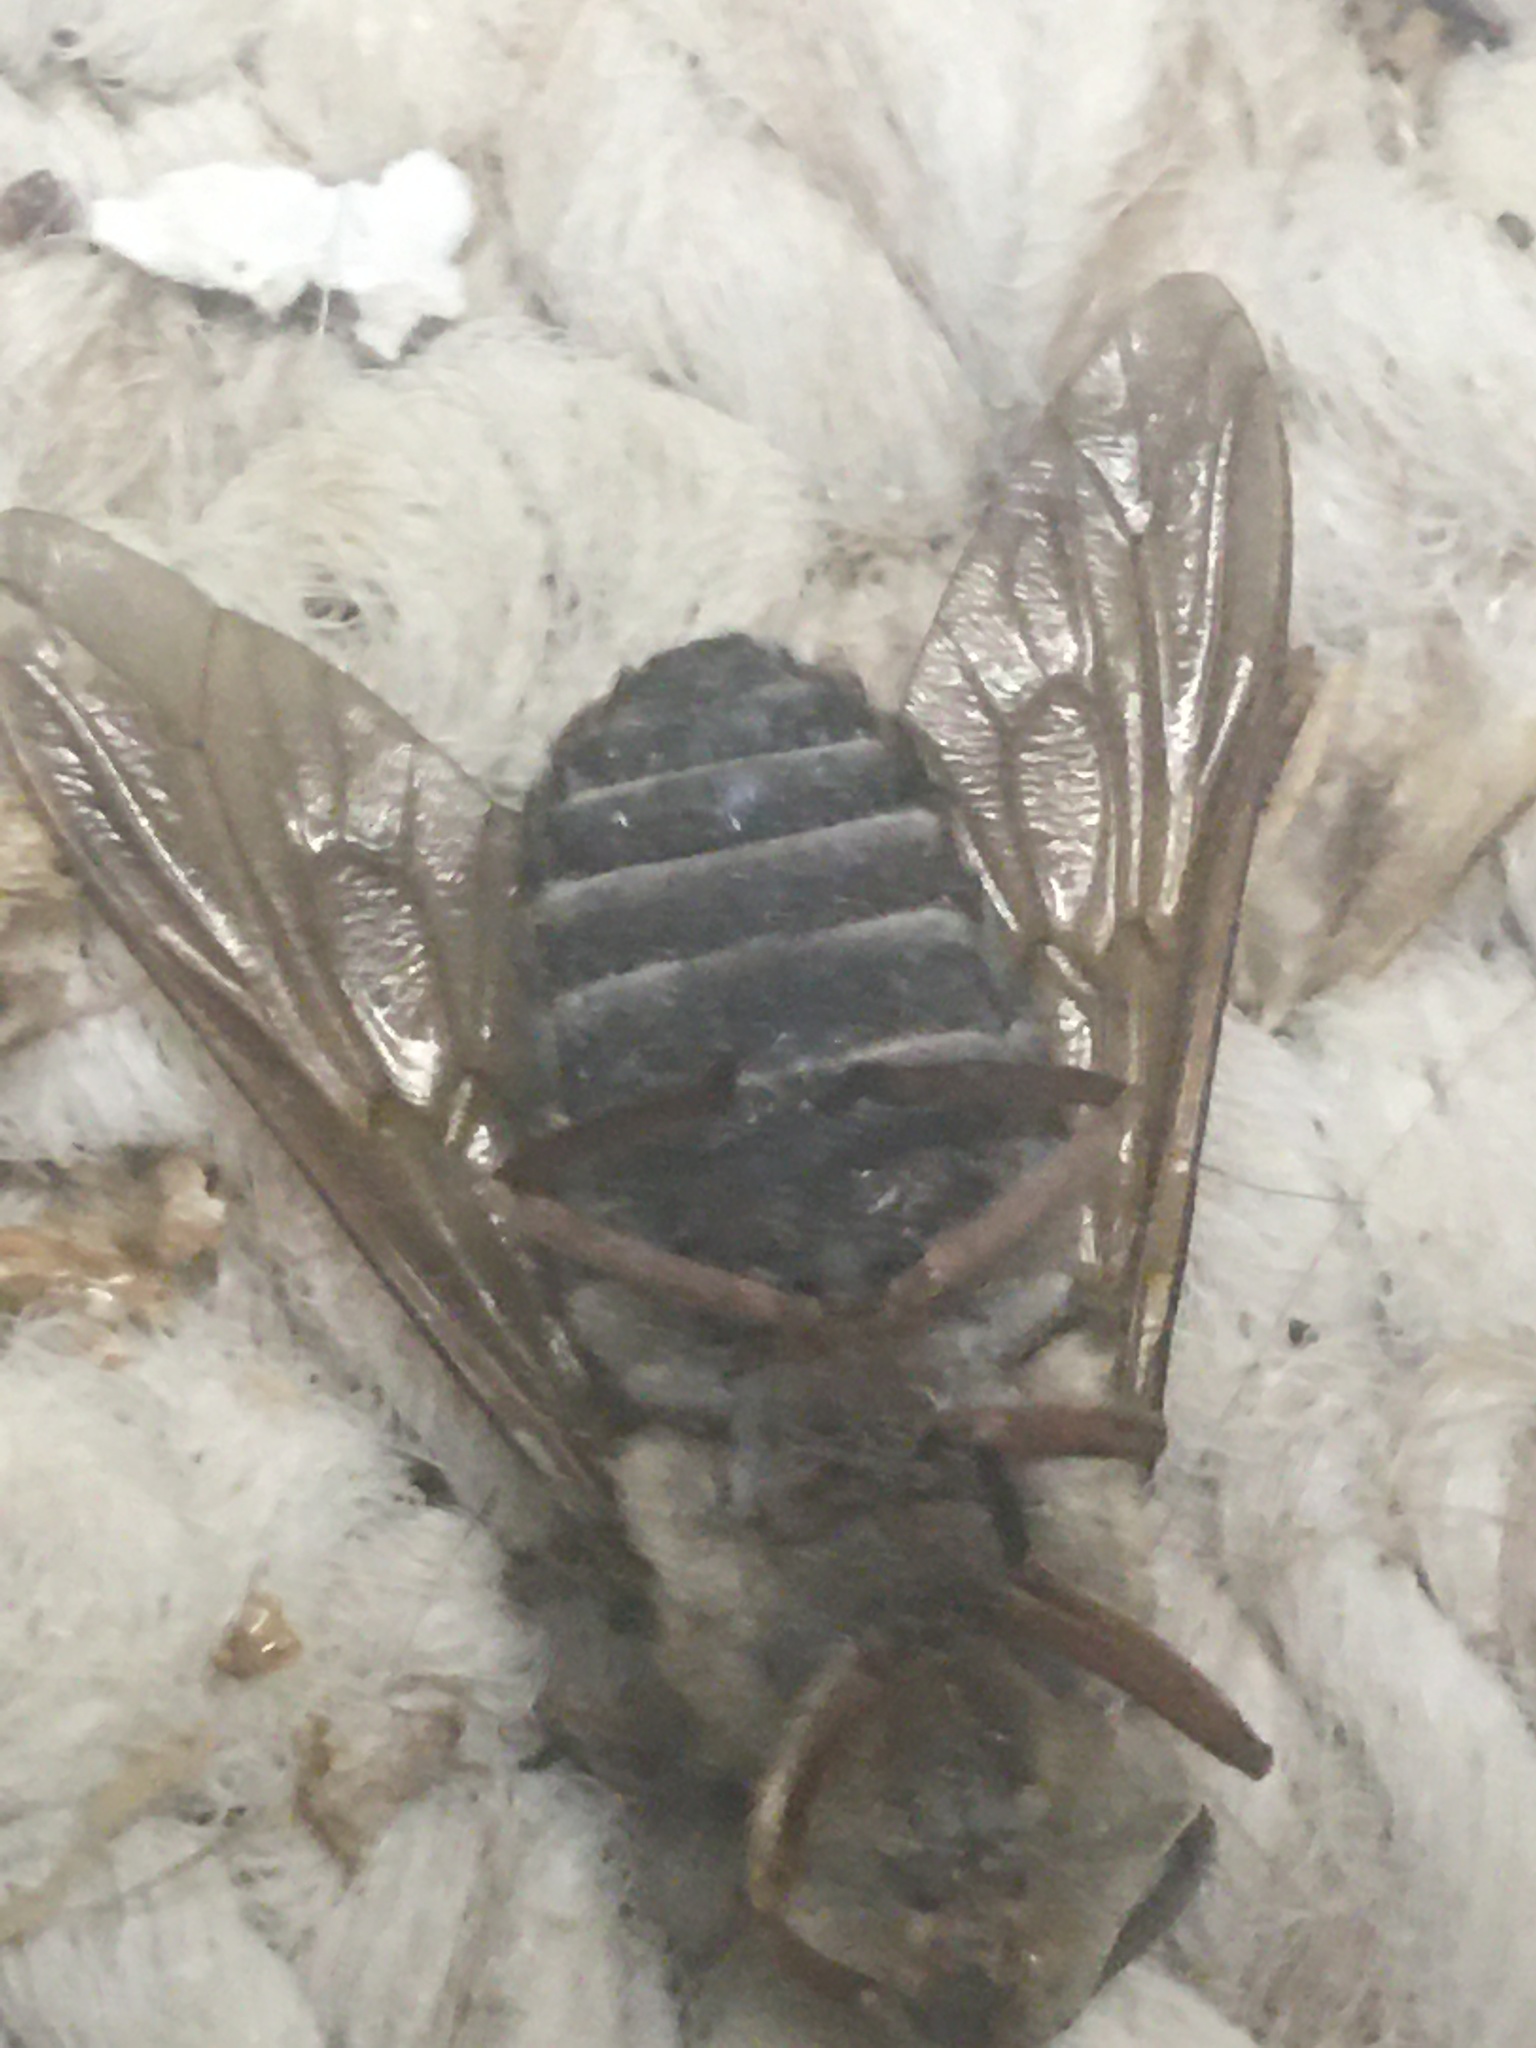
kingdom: Animalia
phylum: Arthropoda
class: Insecta
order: Diptera
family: Tabanidae
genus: Tabanus
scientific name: Tabanus calens
